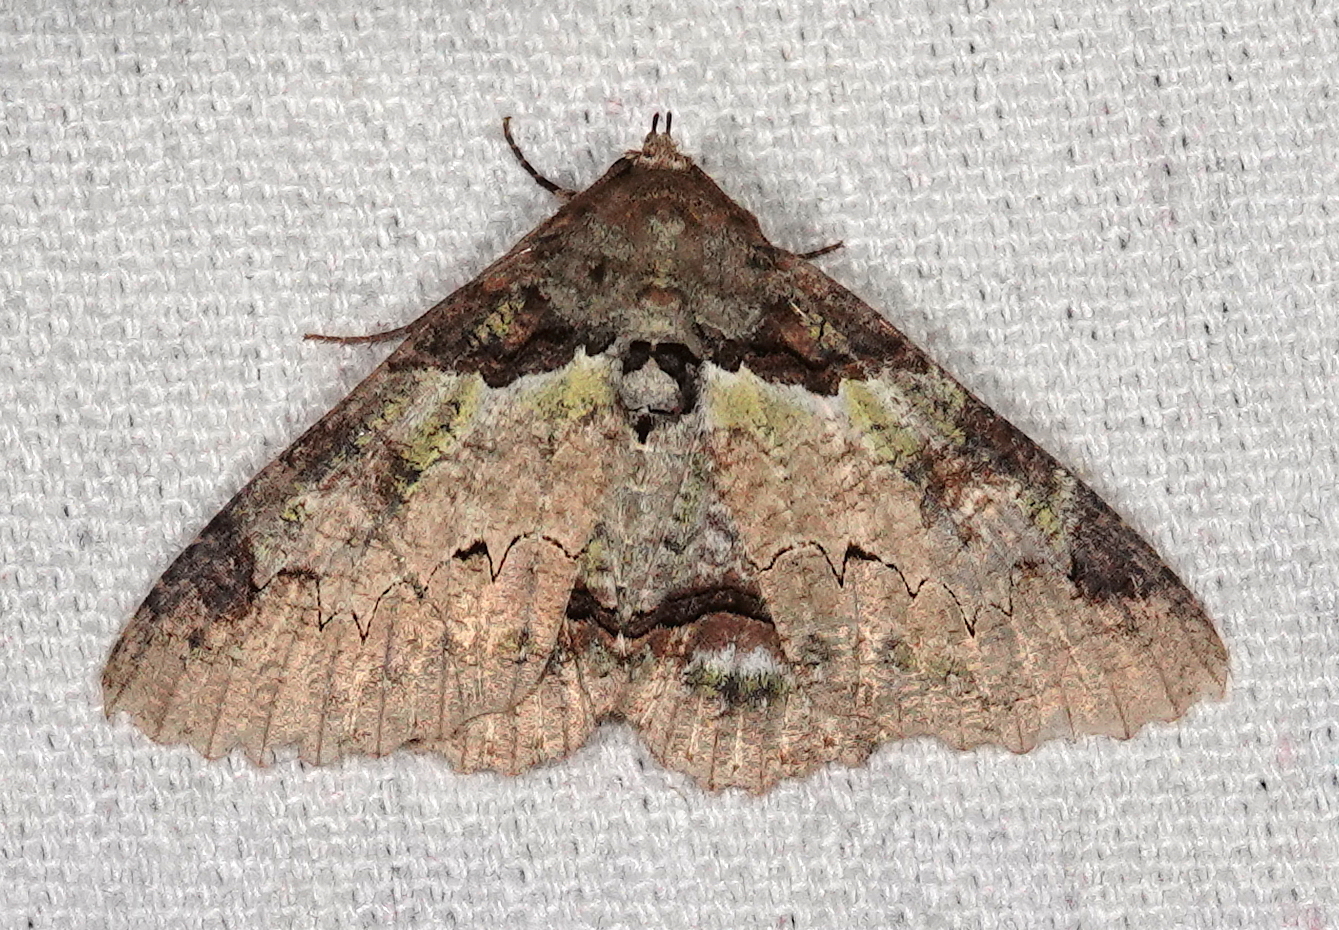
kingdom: Animalia
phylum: Arthropoda
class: Insecta
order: Lepidoptera
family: Erebidae
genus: Zale
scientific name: Zale galactea
